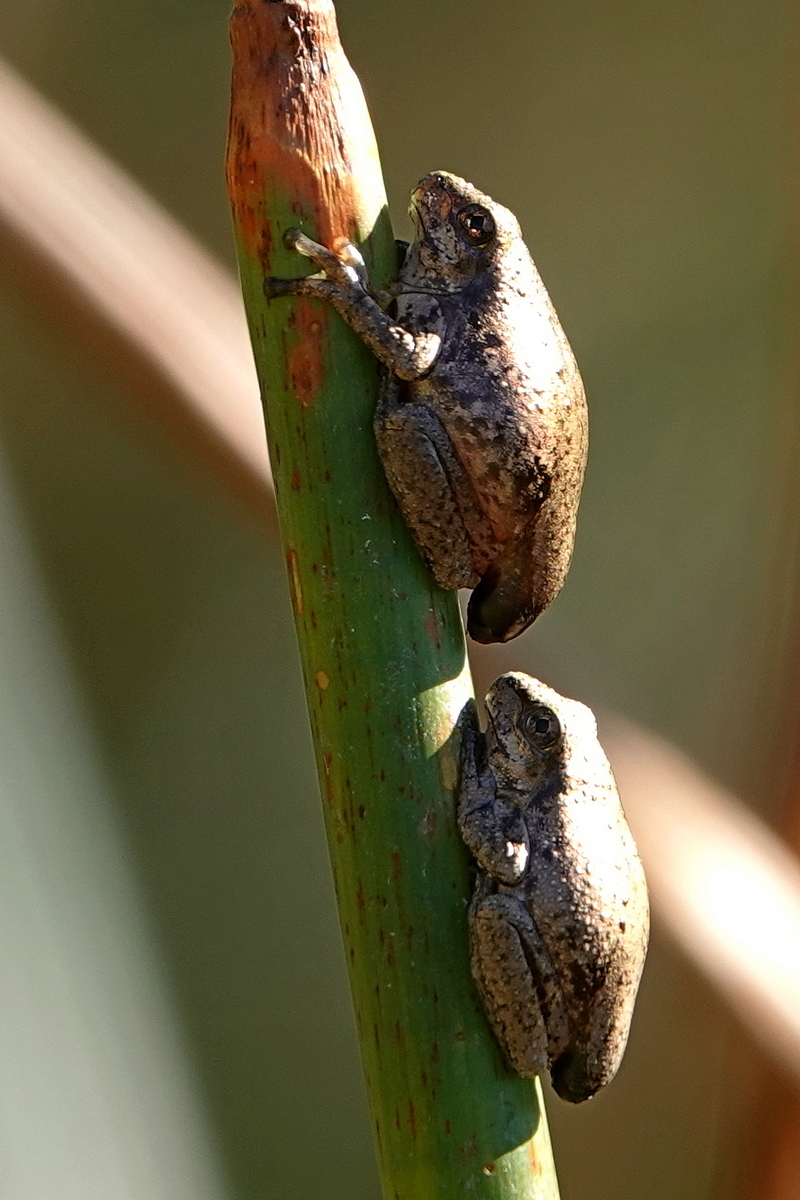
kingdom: Animalia
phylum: Chordata
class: Amphibia
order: Anura
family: Pelodryadidae
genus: Litoria
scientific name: Litoria peronii
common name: Emerald spotted treefrog
